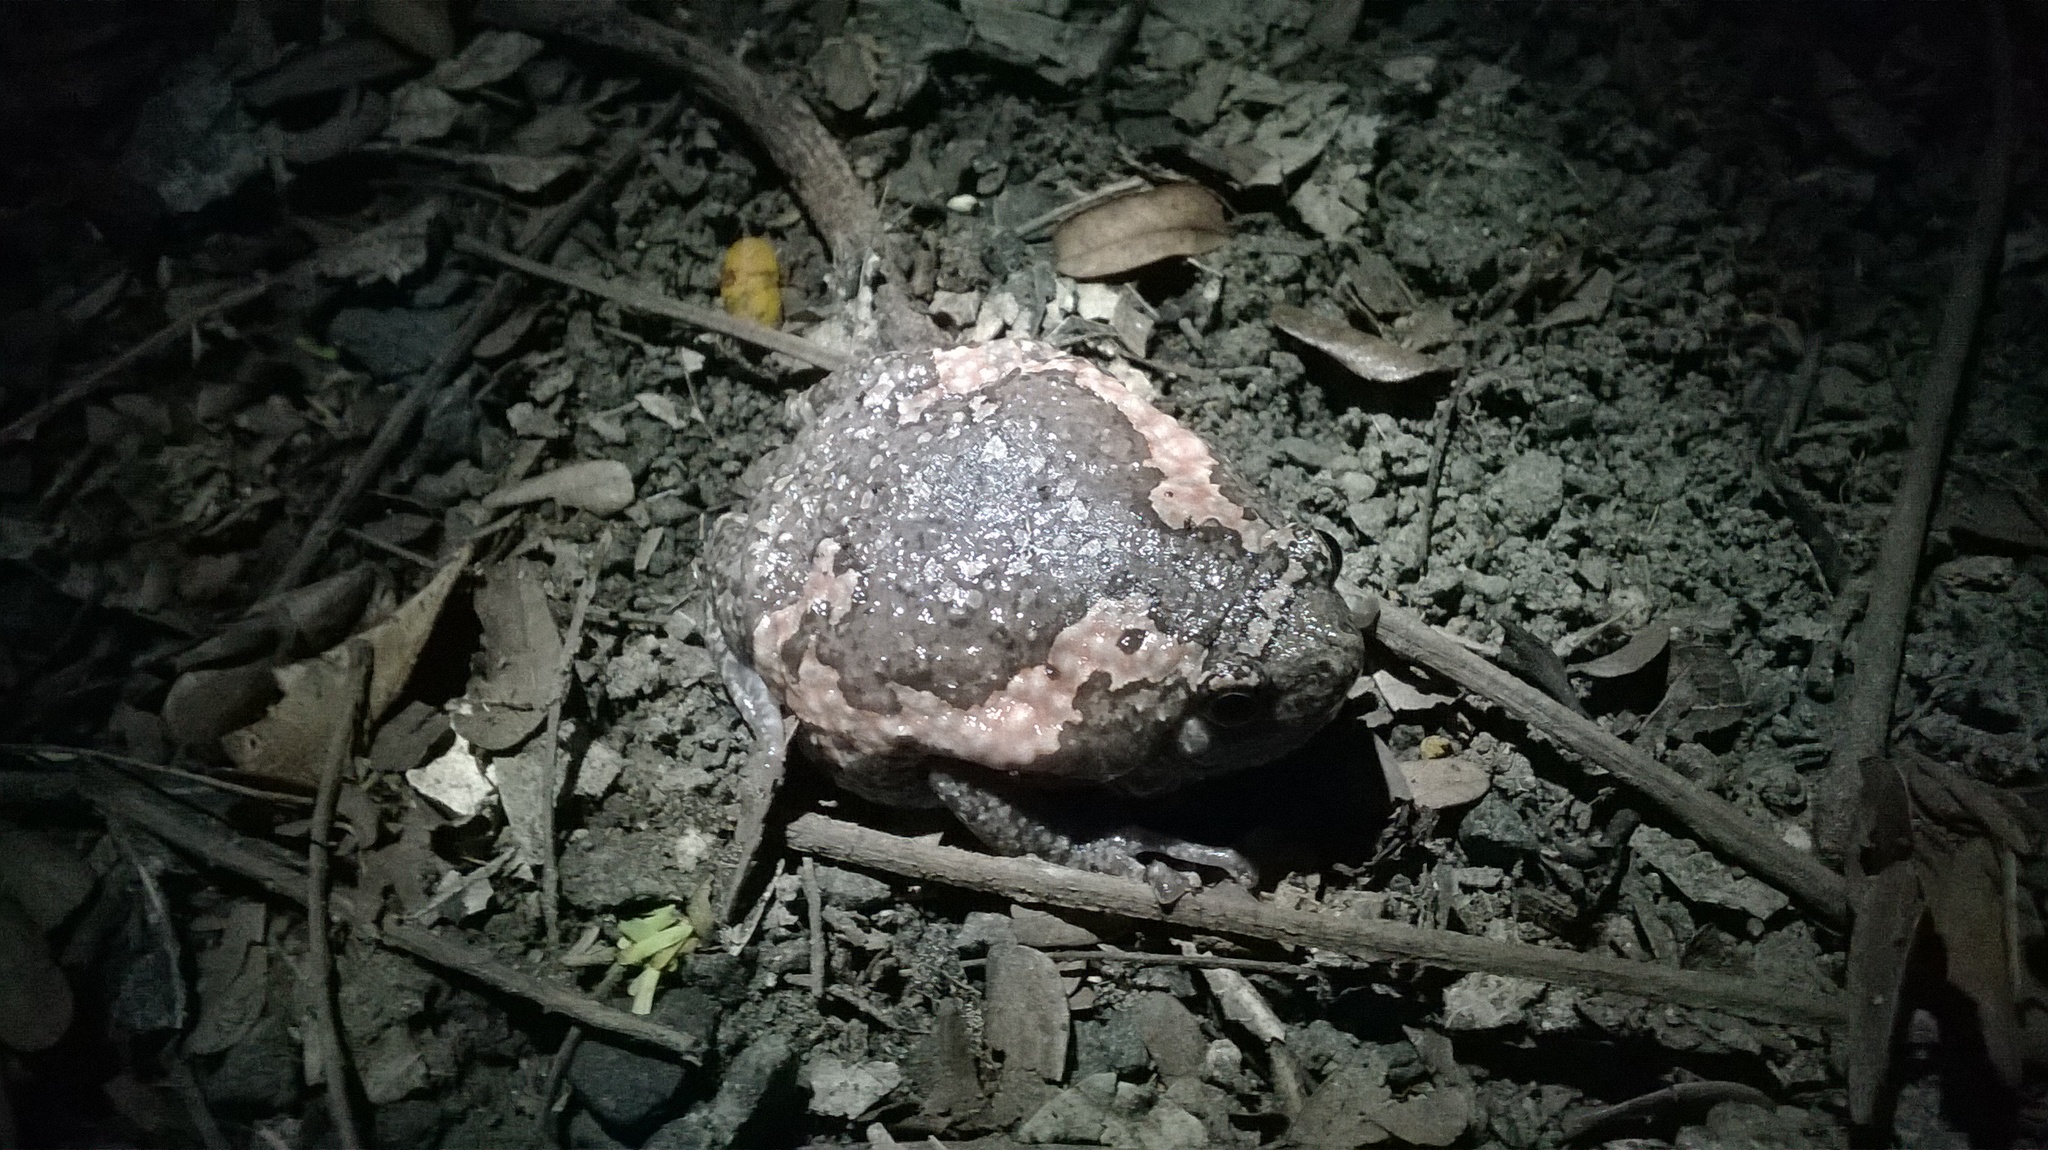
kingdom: Animalia
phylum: Chordata
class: Amphibia
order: Anura
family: Microhylidae
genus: Uperodon
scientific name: Uperodon taprobanicus
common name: Ceylon kaloula
